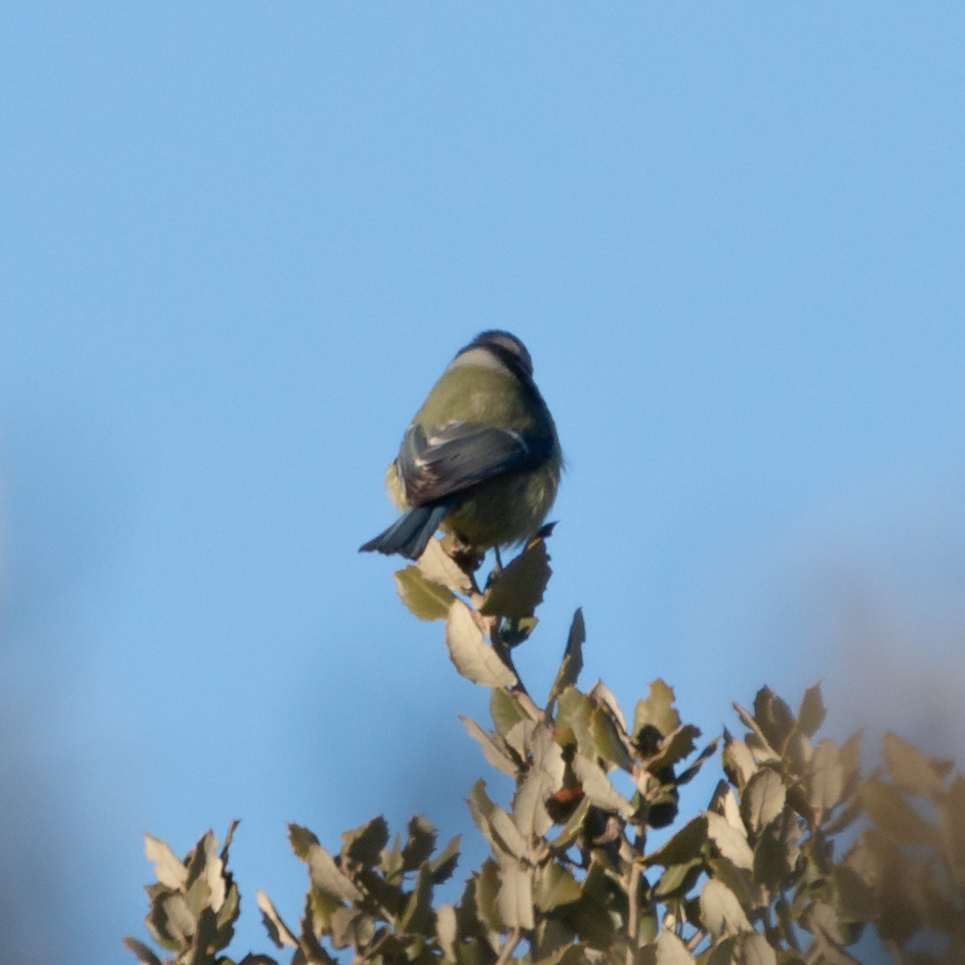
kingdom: Animalia
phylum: Chordata
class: Aves
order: Passeriformes
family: Paridae
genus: Cyanistes
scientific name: Cyanistes caeruleus
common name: Eurasian blue tit
